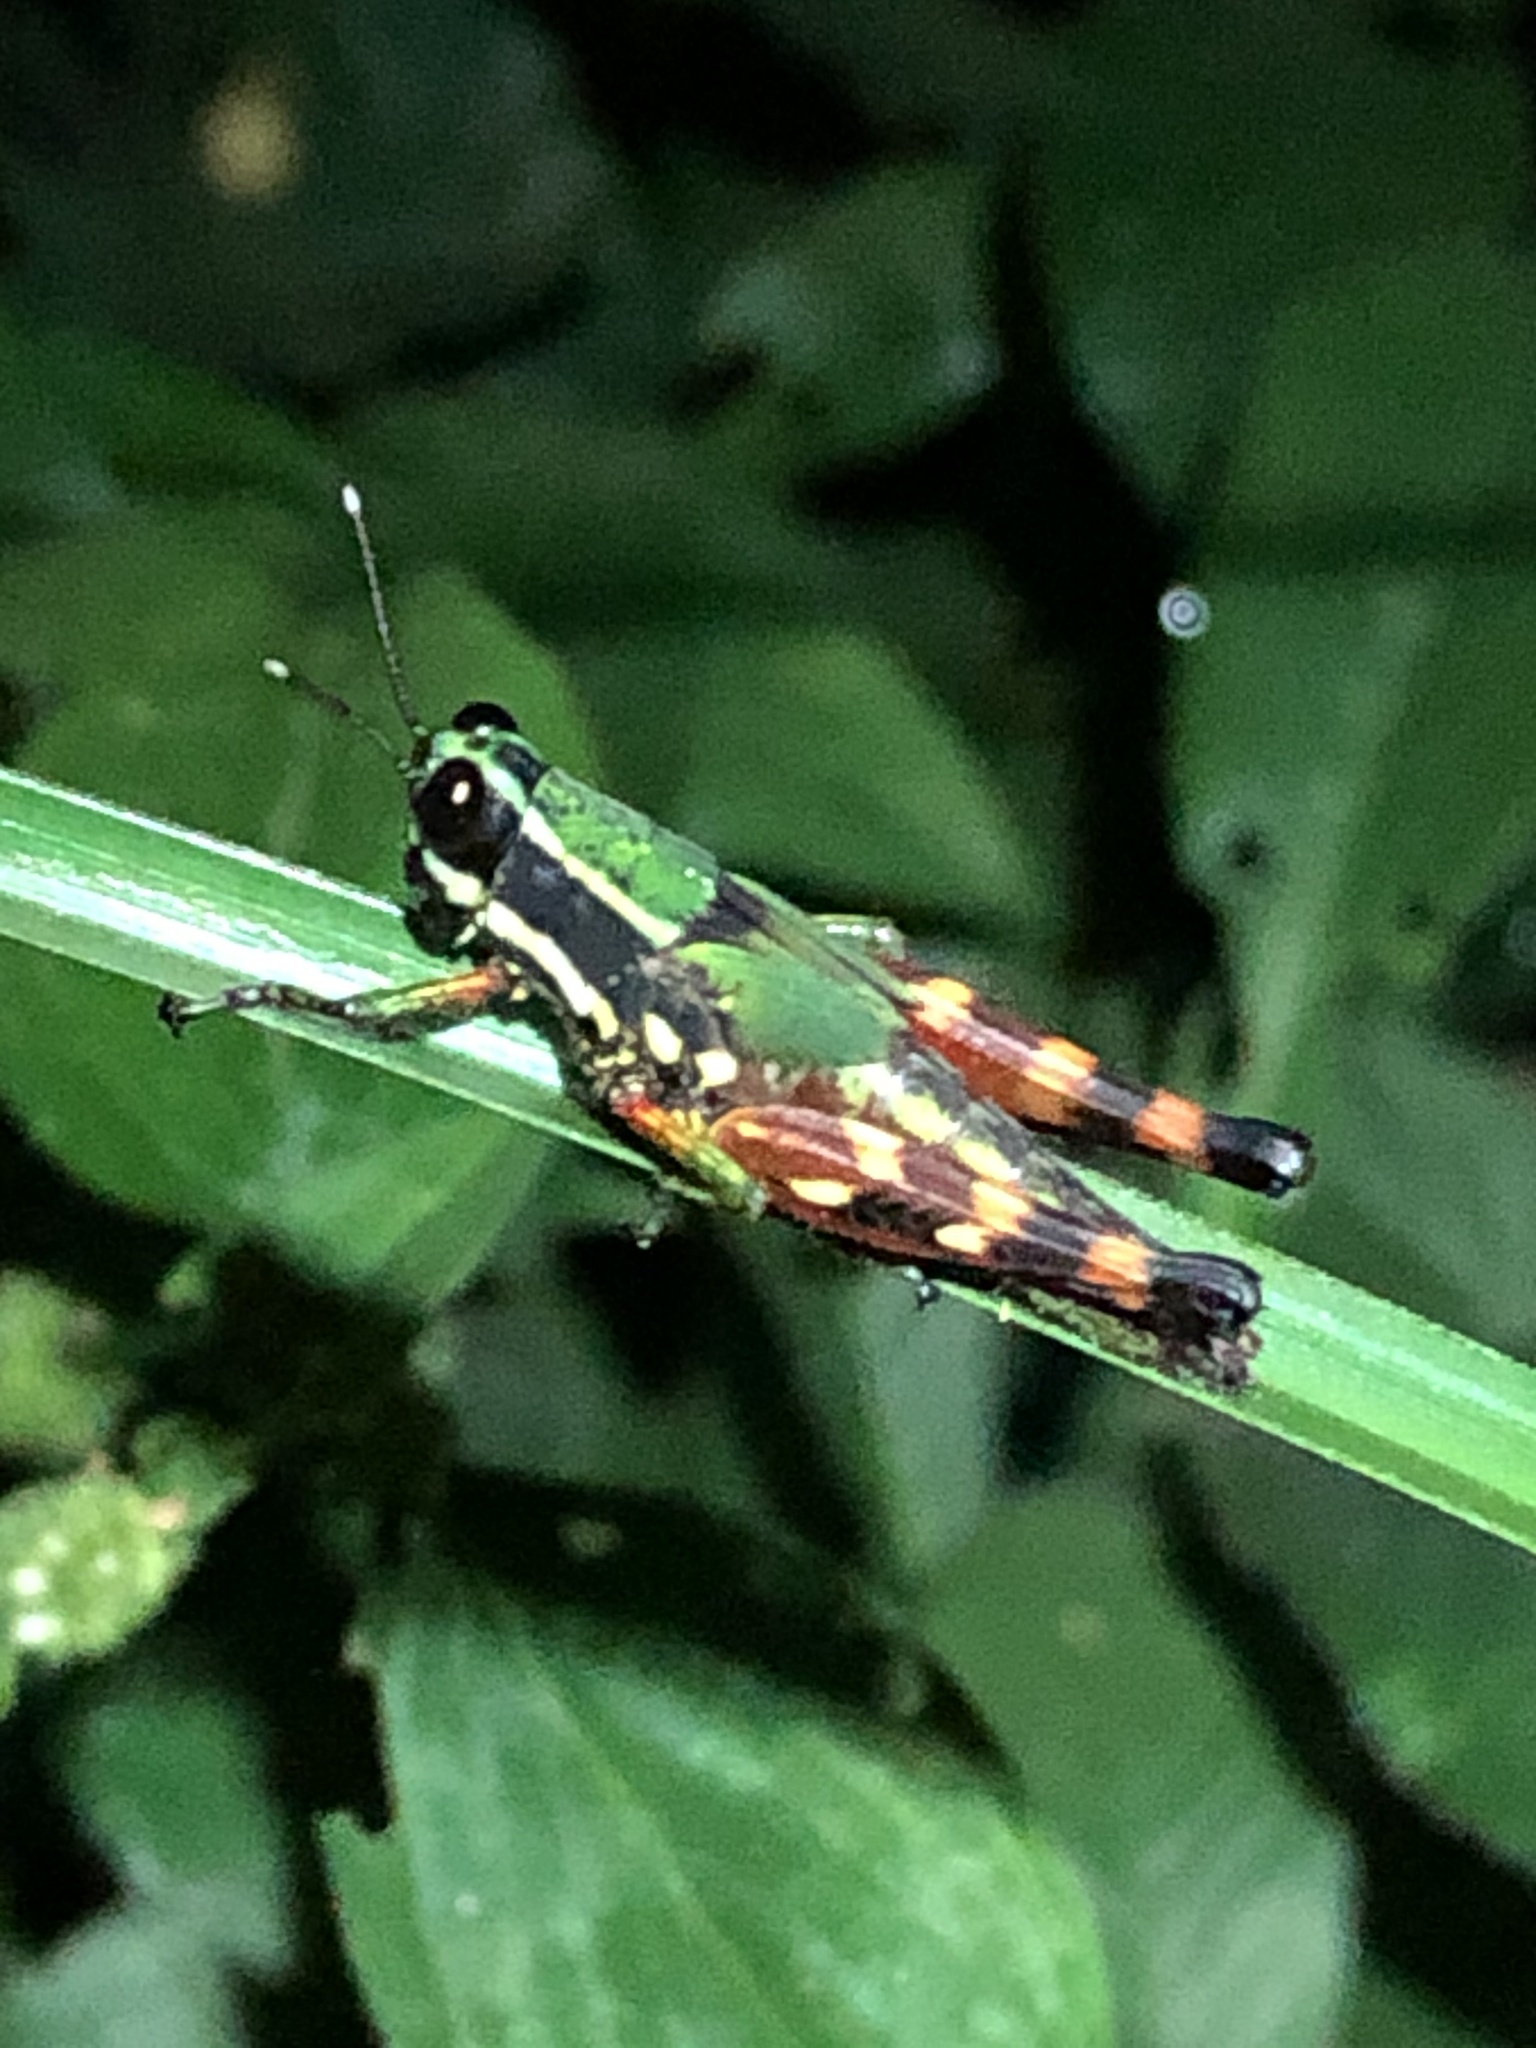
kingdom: Animalia
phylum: Arthropoda
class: Insecta
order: Orthoptera
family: Acrididae
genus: Tetrataenia
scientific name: Tetrataenia surinama
